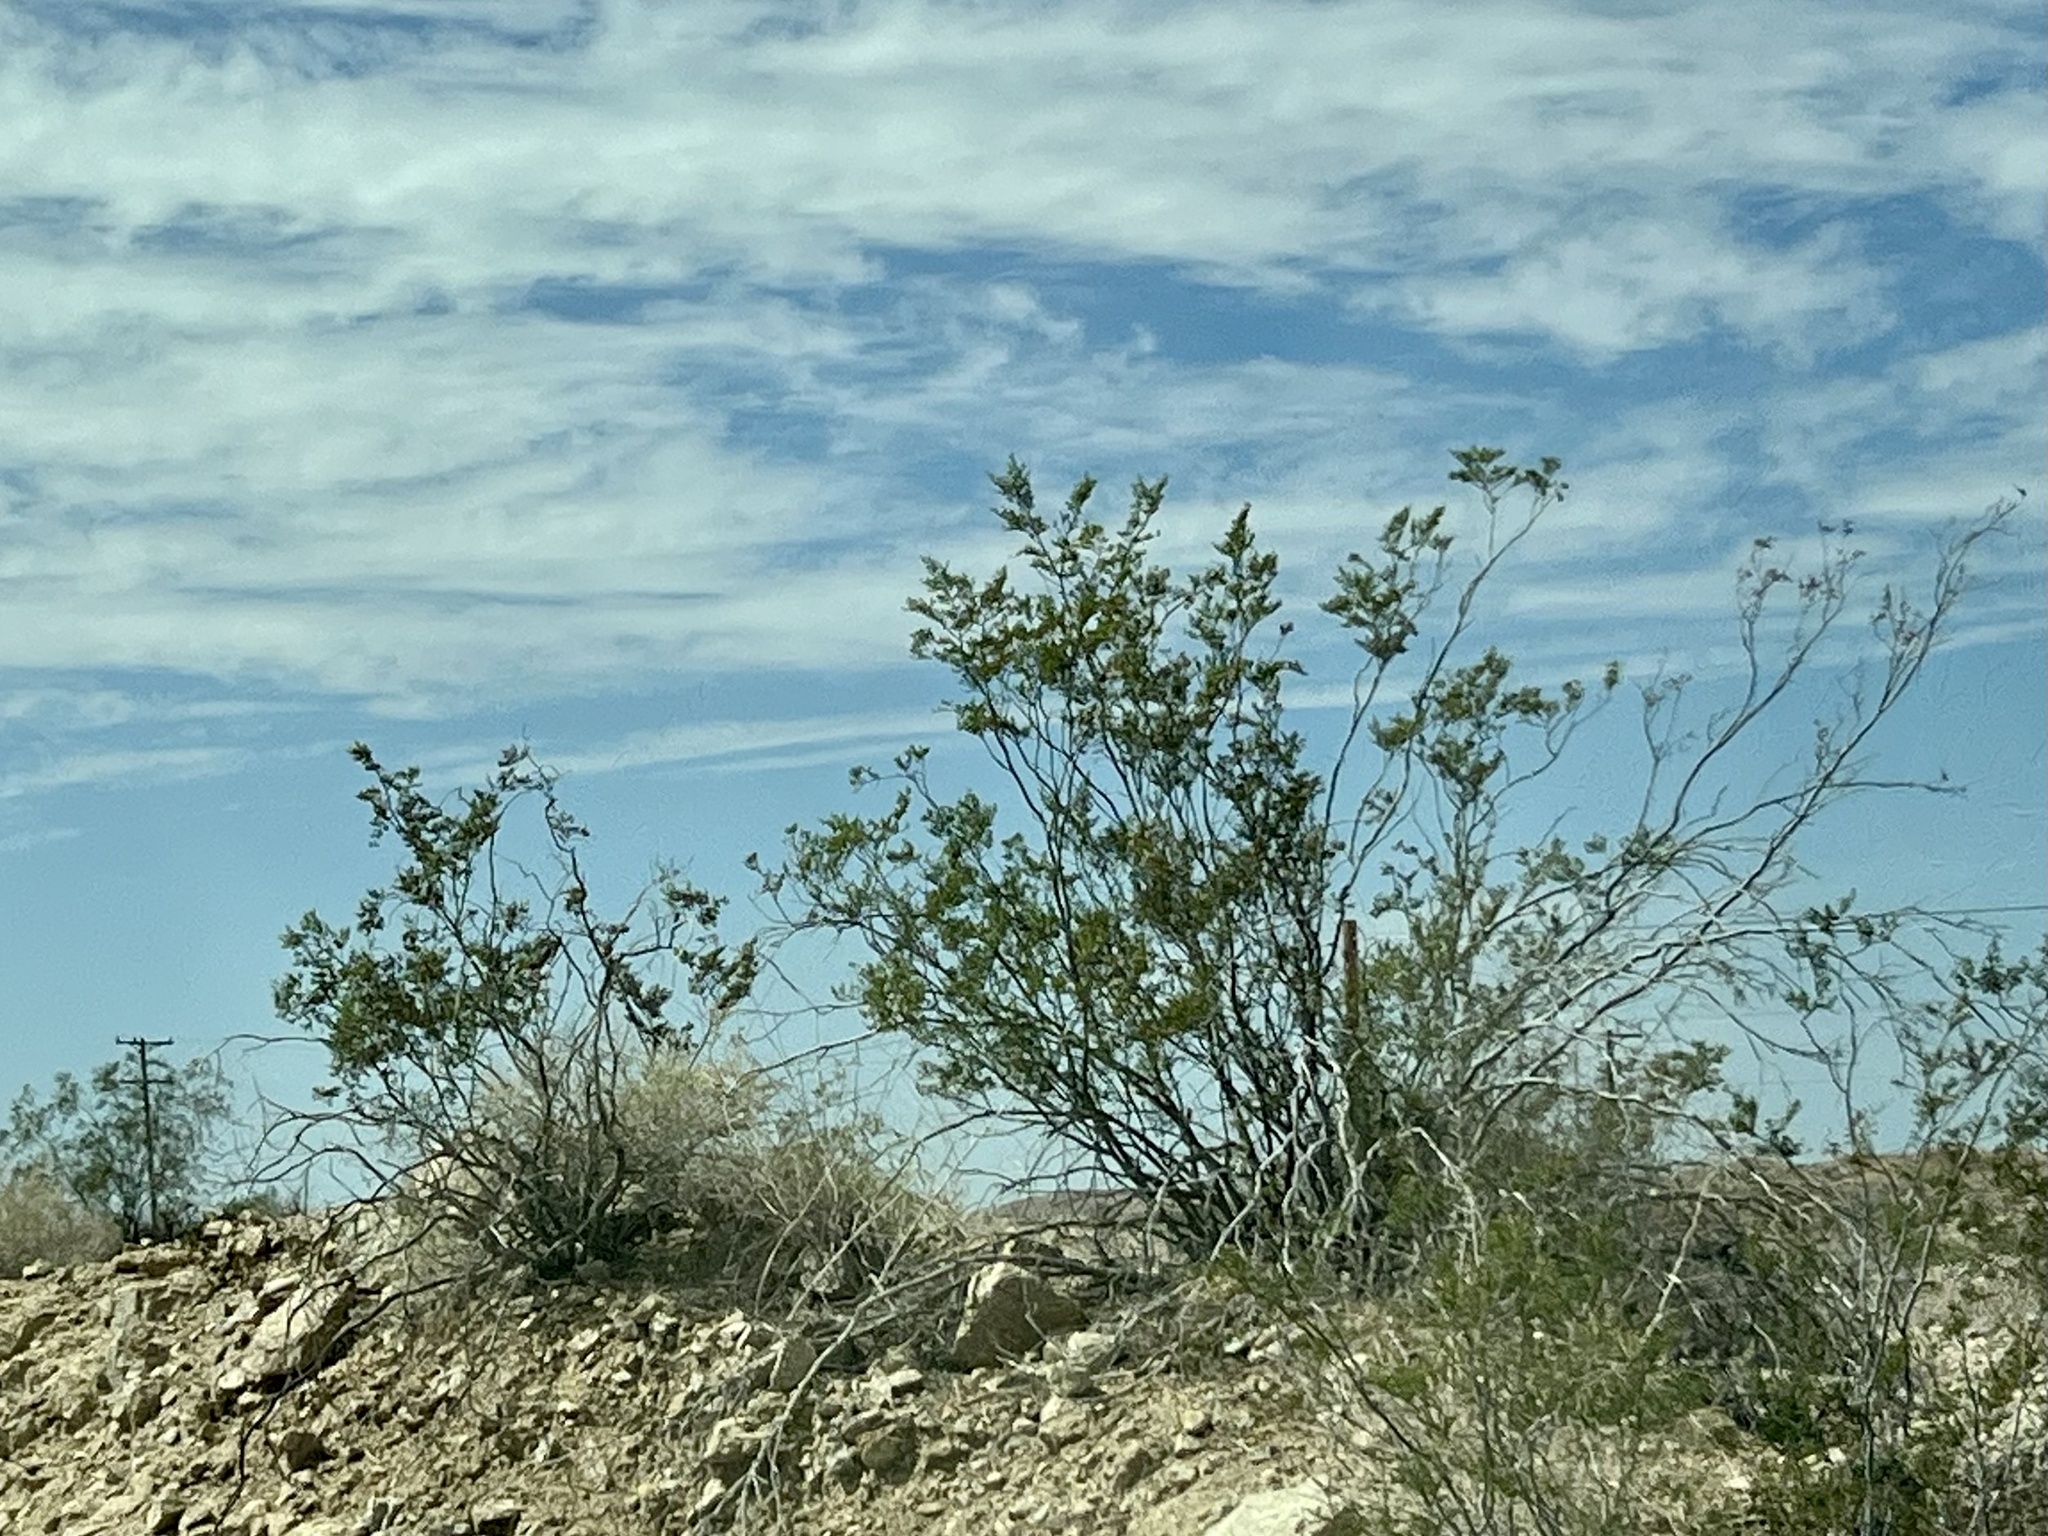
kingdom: Plantae
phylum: Tracheophyta
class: Magnoliopsida
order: Zygophyllales
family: Zygophyllaceae
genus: Larrea
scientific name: Larrea tridentata
